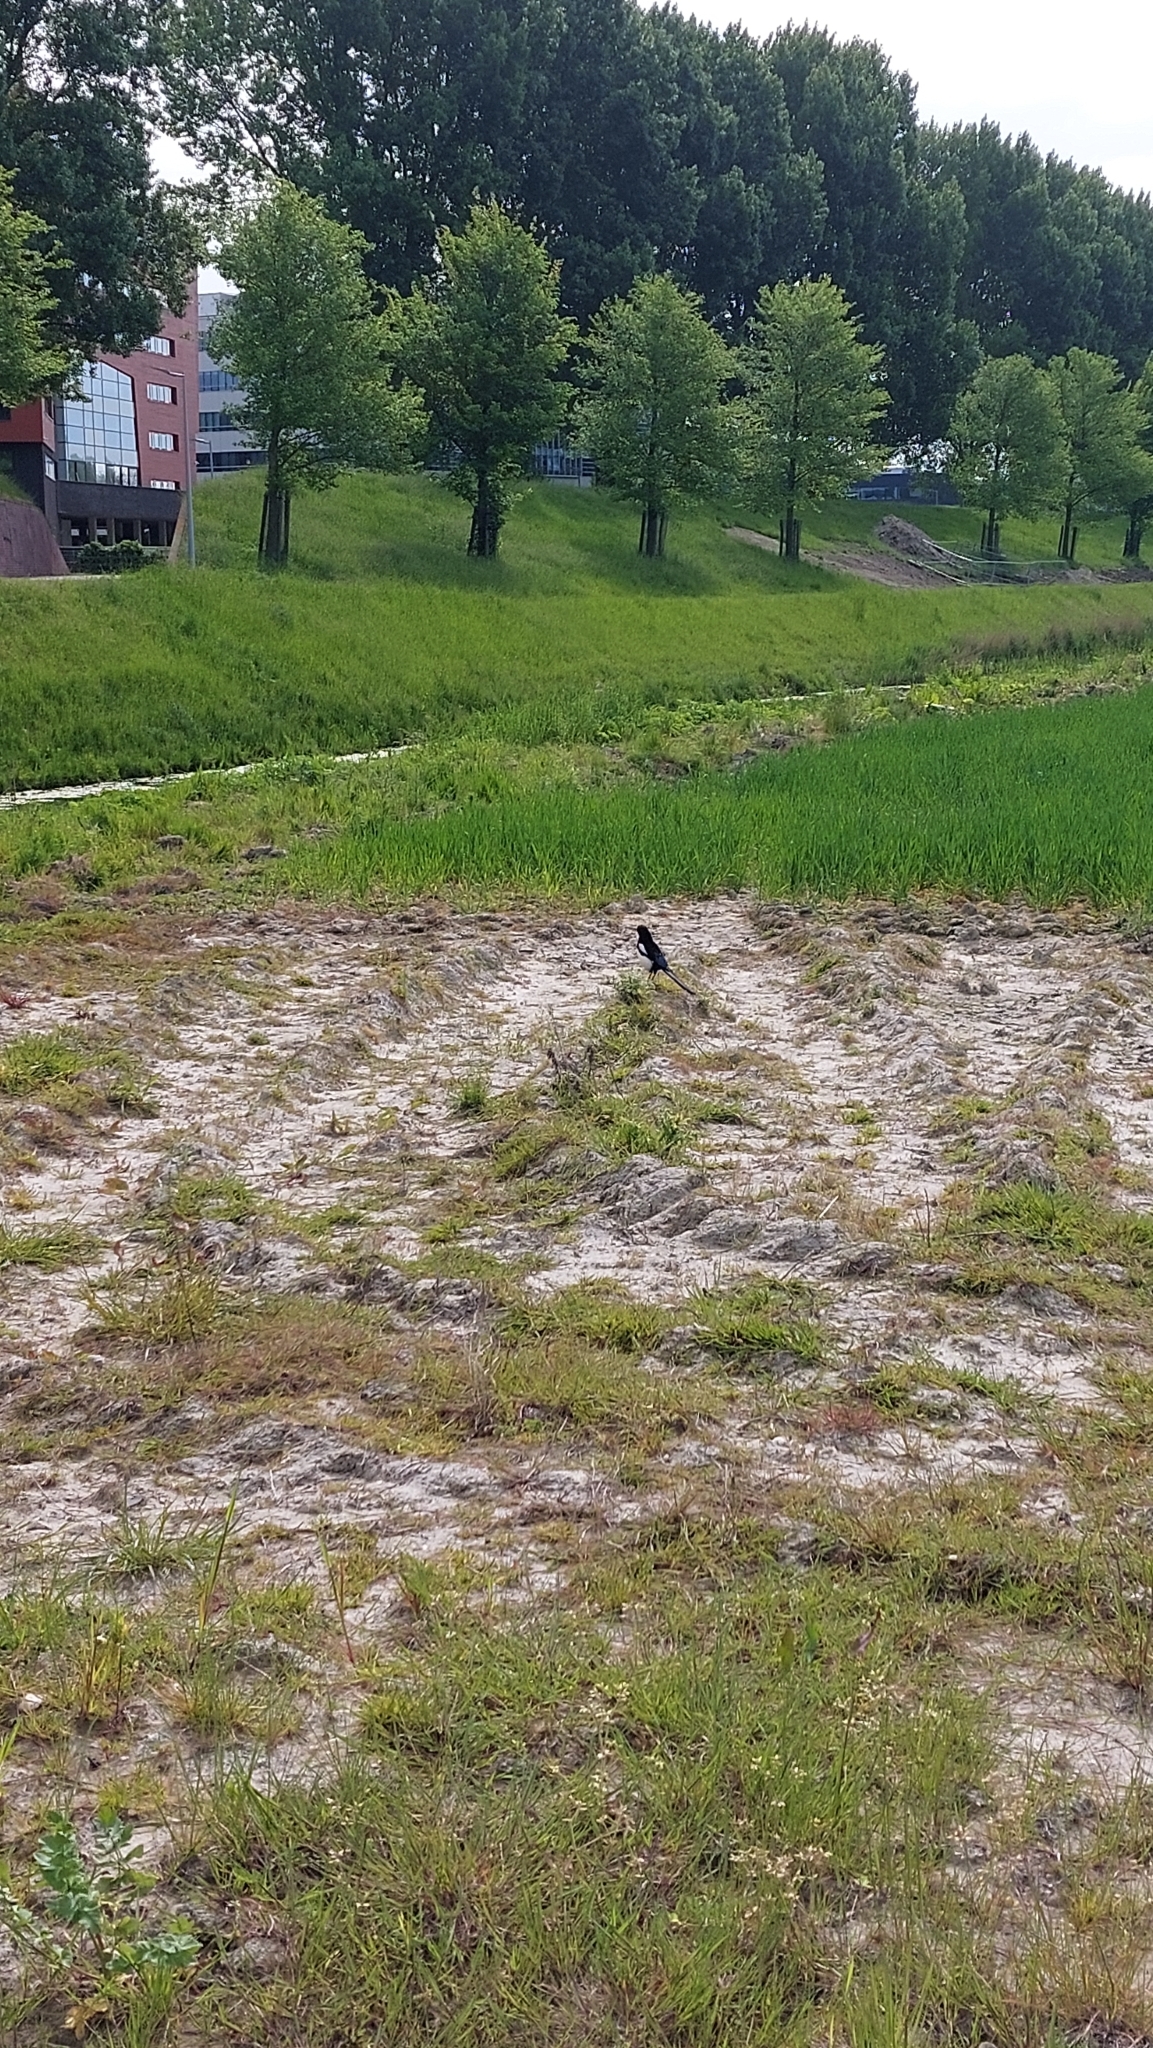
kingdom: Animalia
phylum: Chordata
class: Aves
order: Passeriformes
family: Corvidae
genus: Pica
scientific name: Pica pica
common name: Eurasian magpie
